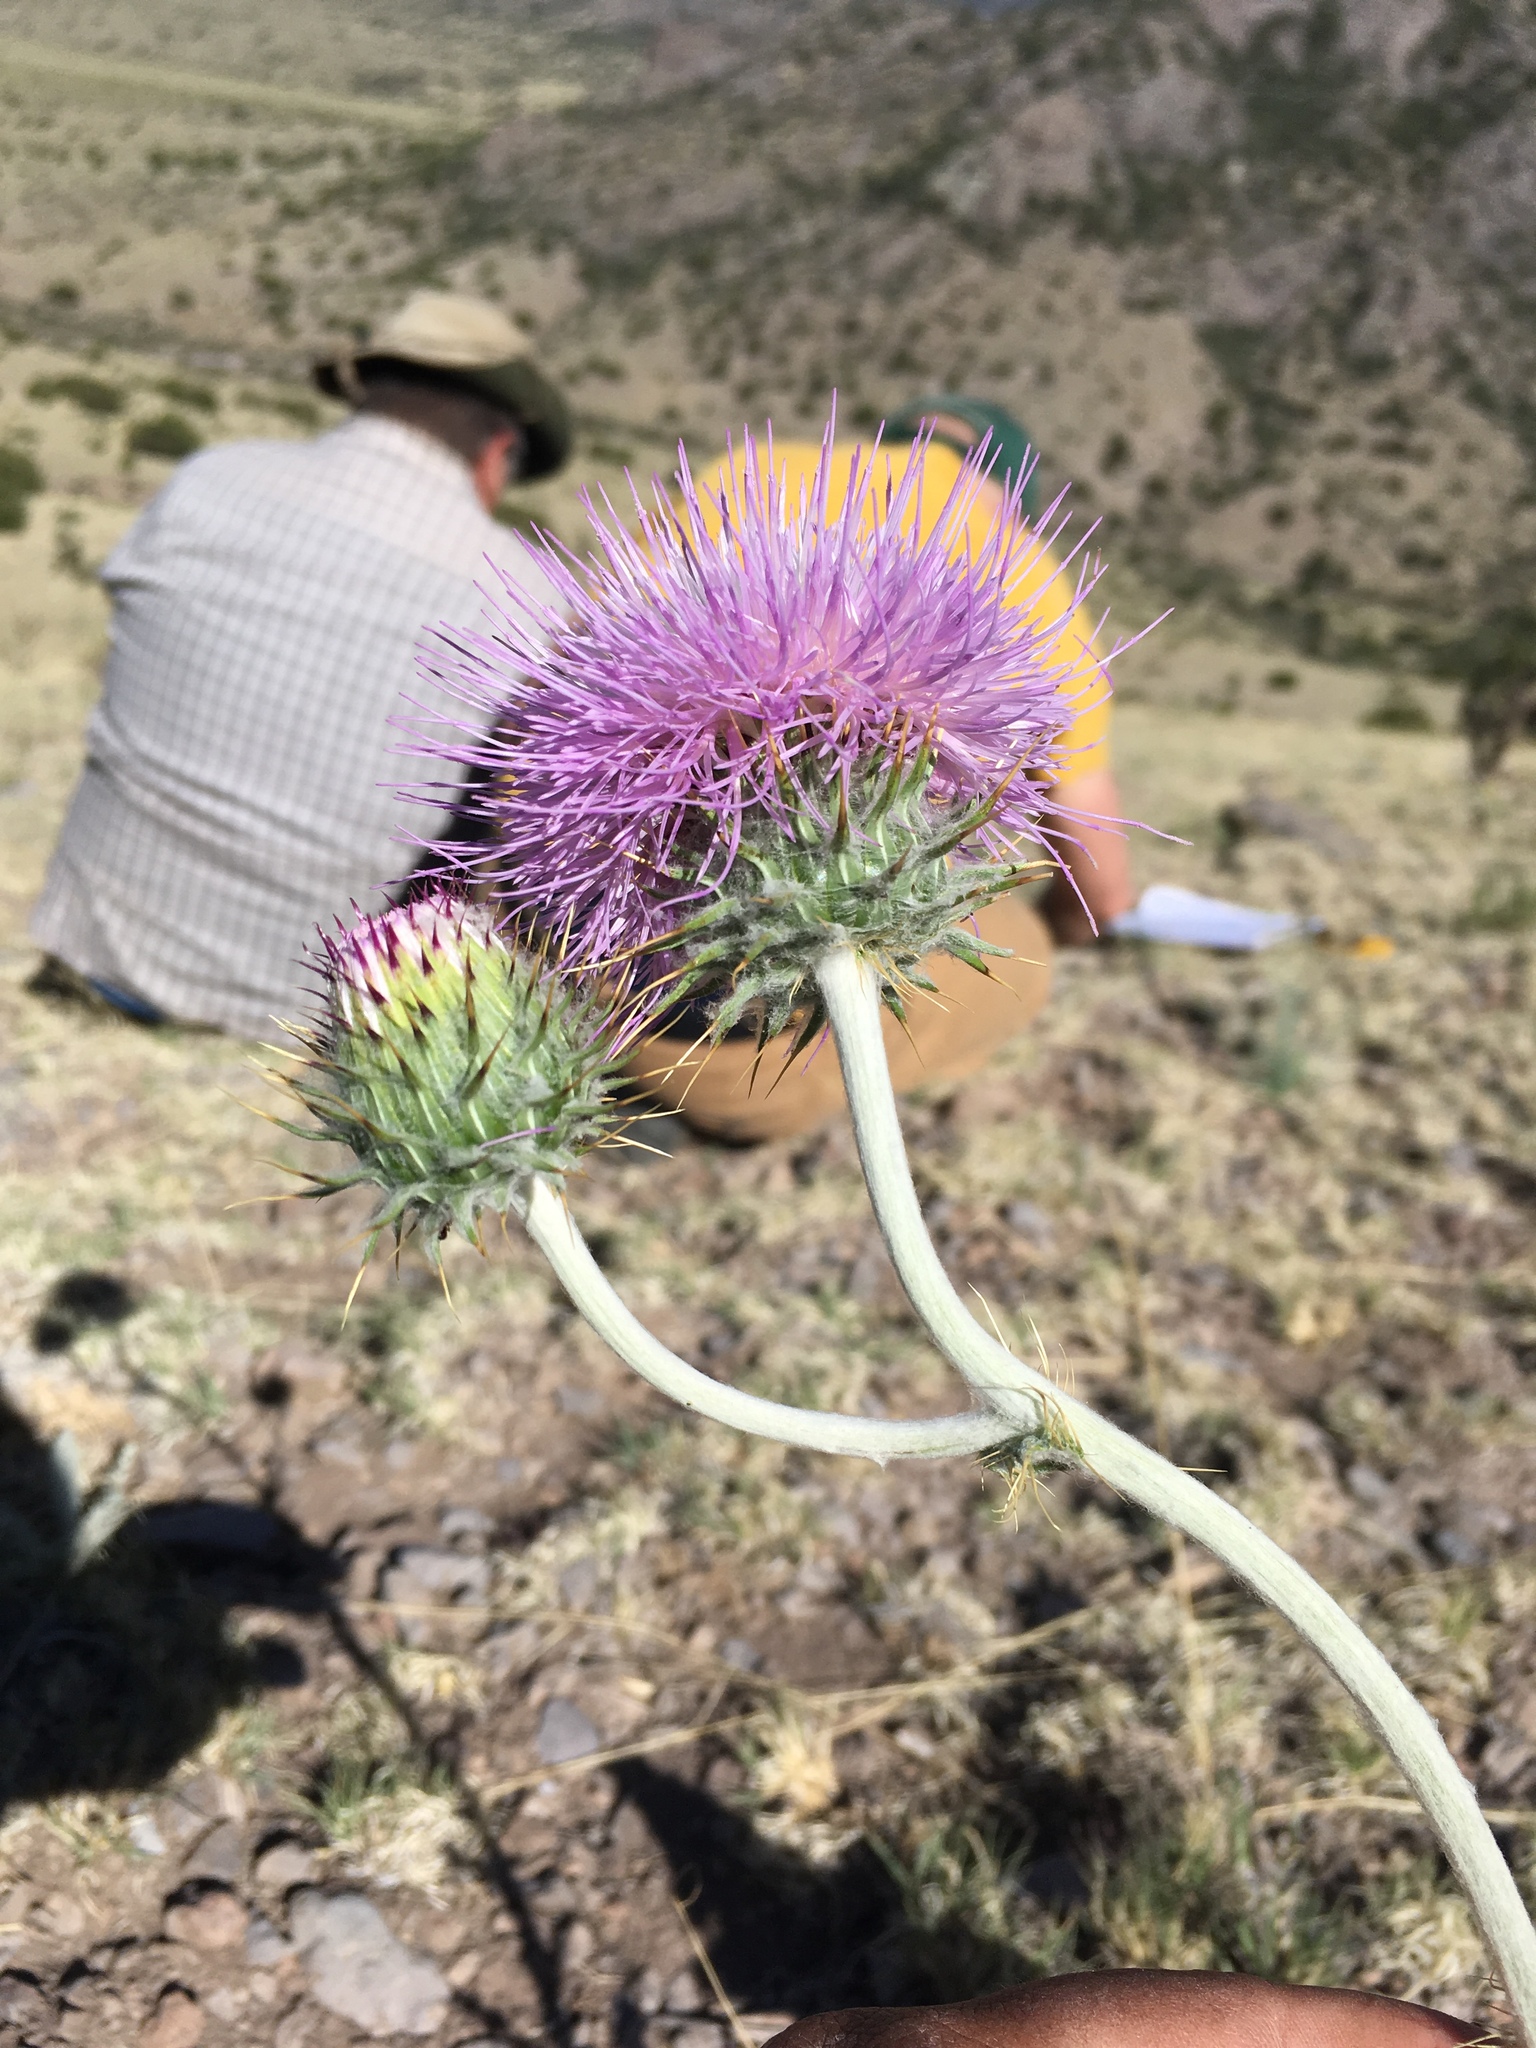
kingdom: Plantae
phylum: Tracheophyta
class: Magnoliopsida
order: Asterales
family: Asteraceae
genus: Cirsium
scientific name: Cirsium neomexicanum
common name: New mexico thistle
